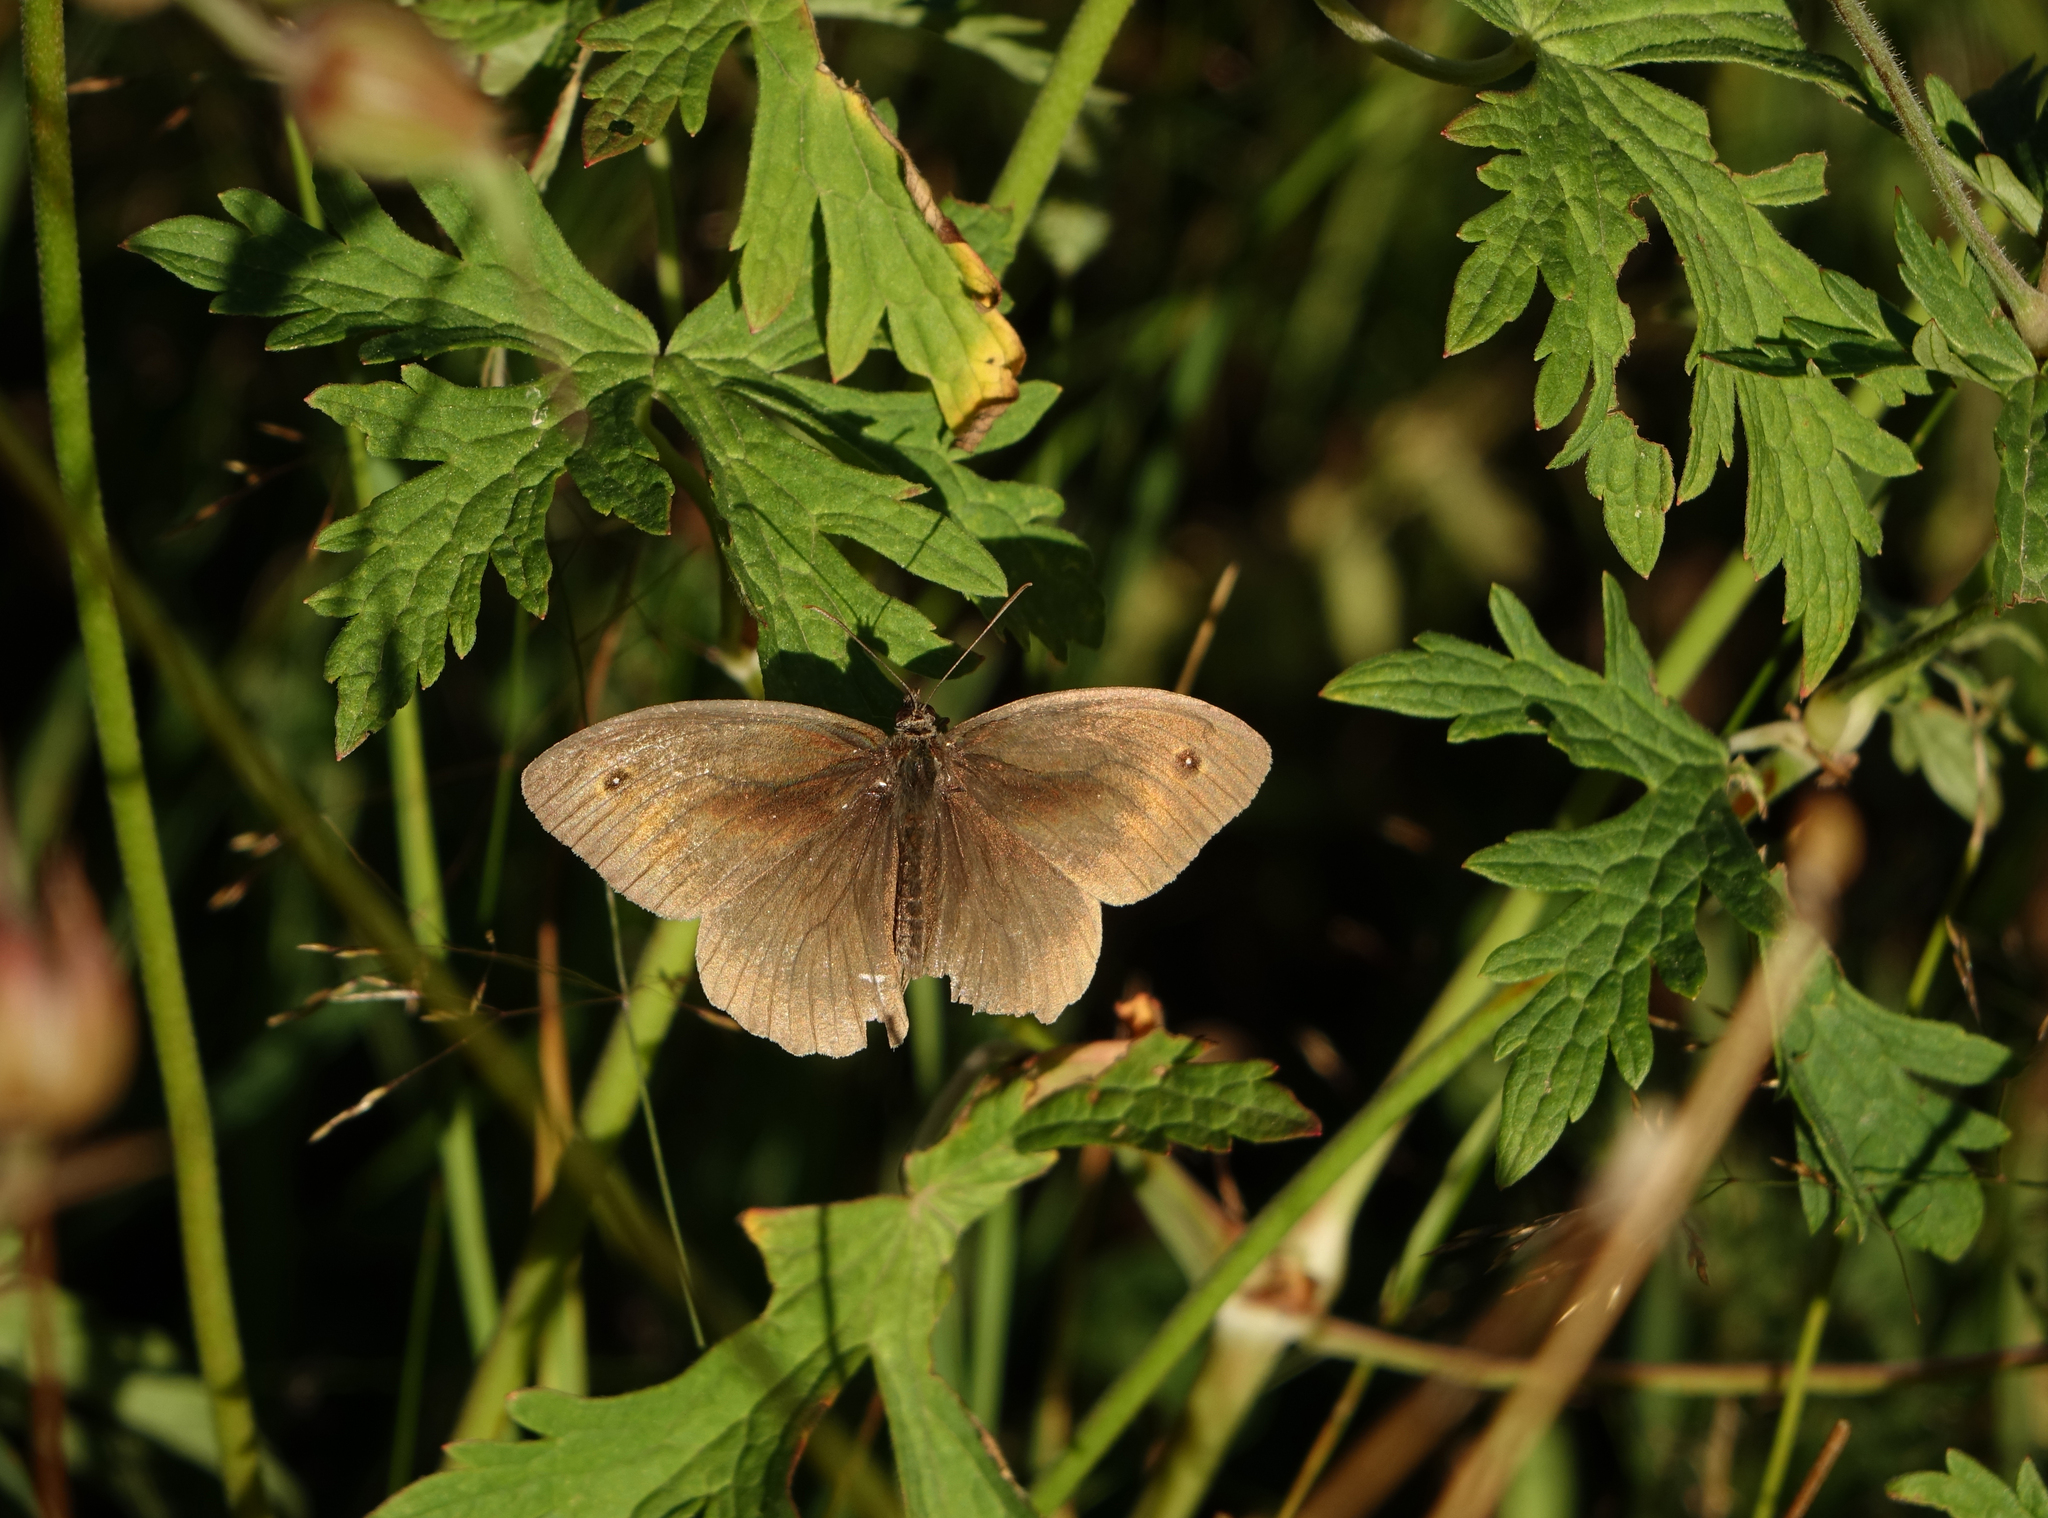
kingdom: Animalia
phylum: Arthropoda
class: Insecta
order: Lepidoptera
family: Nymphalidae
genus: Maniola
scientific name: Maniola jurtina
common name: Meadow brown
